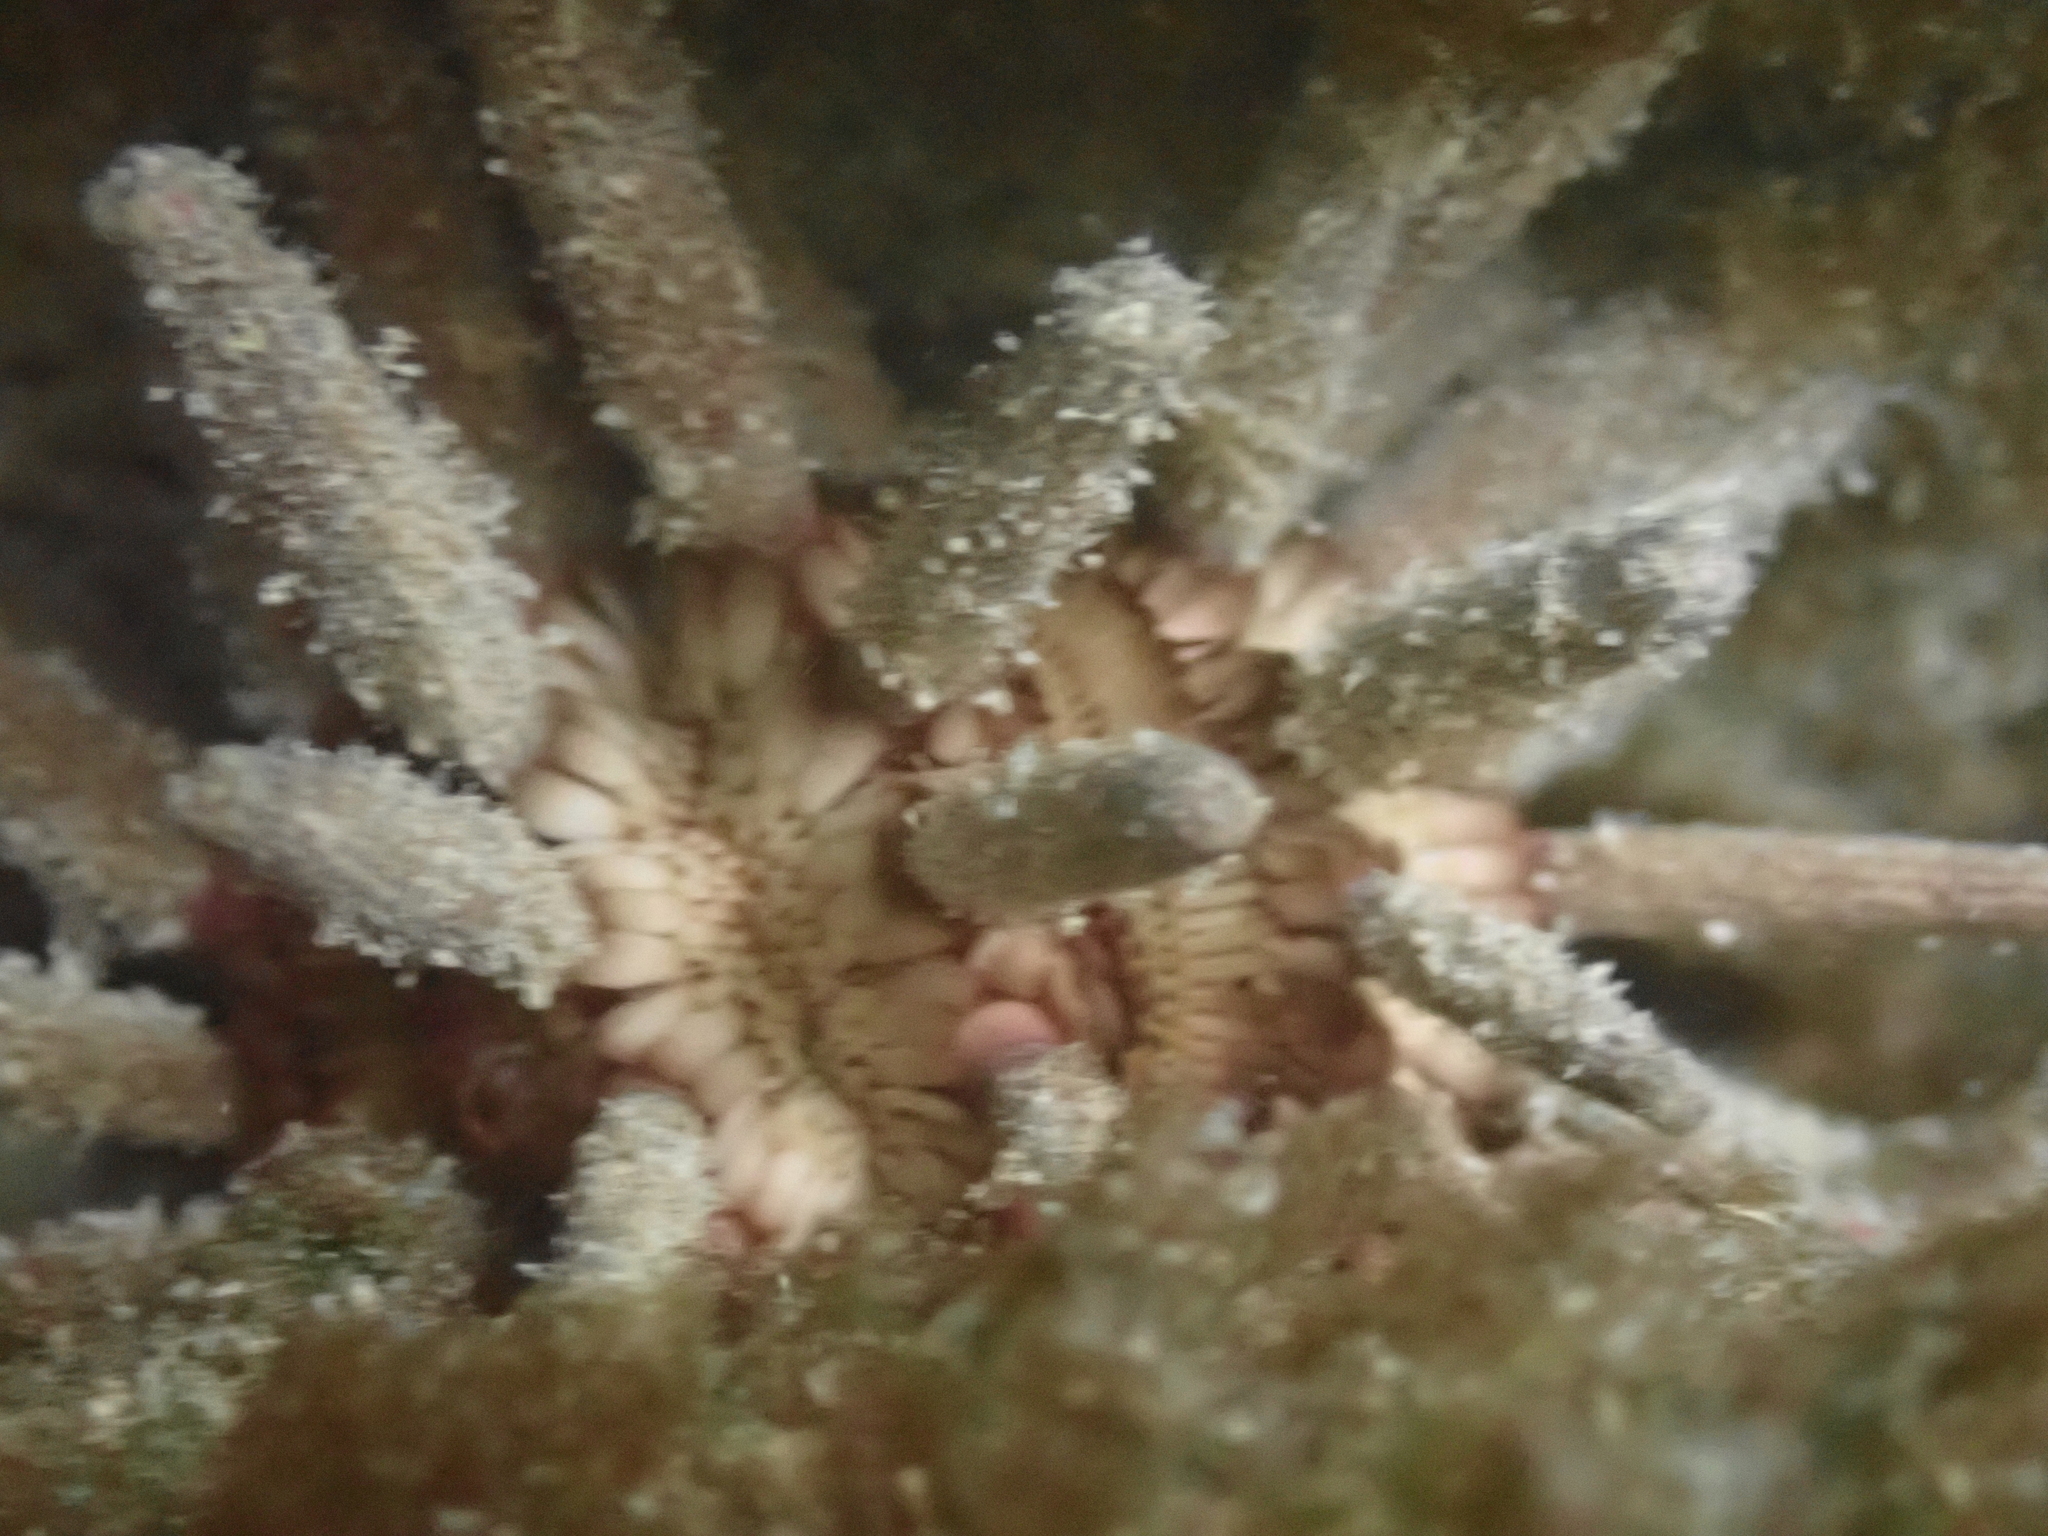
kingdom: Animalia
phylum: Echinodermata
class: Echinoidea
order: Cidaroida
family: Cidaridae
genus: Eucidaris
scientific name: Eucidaris tribuloides
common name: Slate pencil urchin
